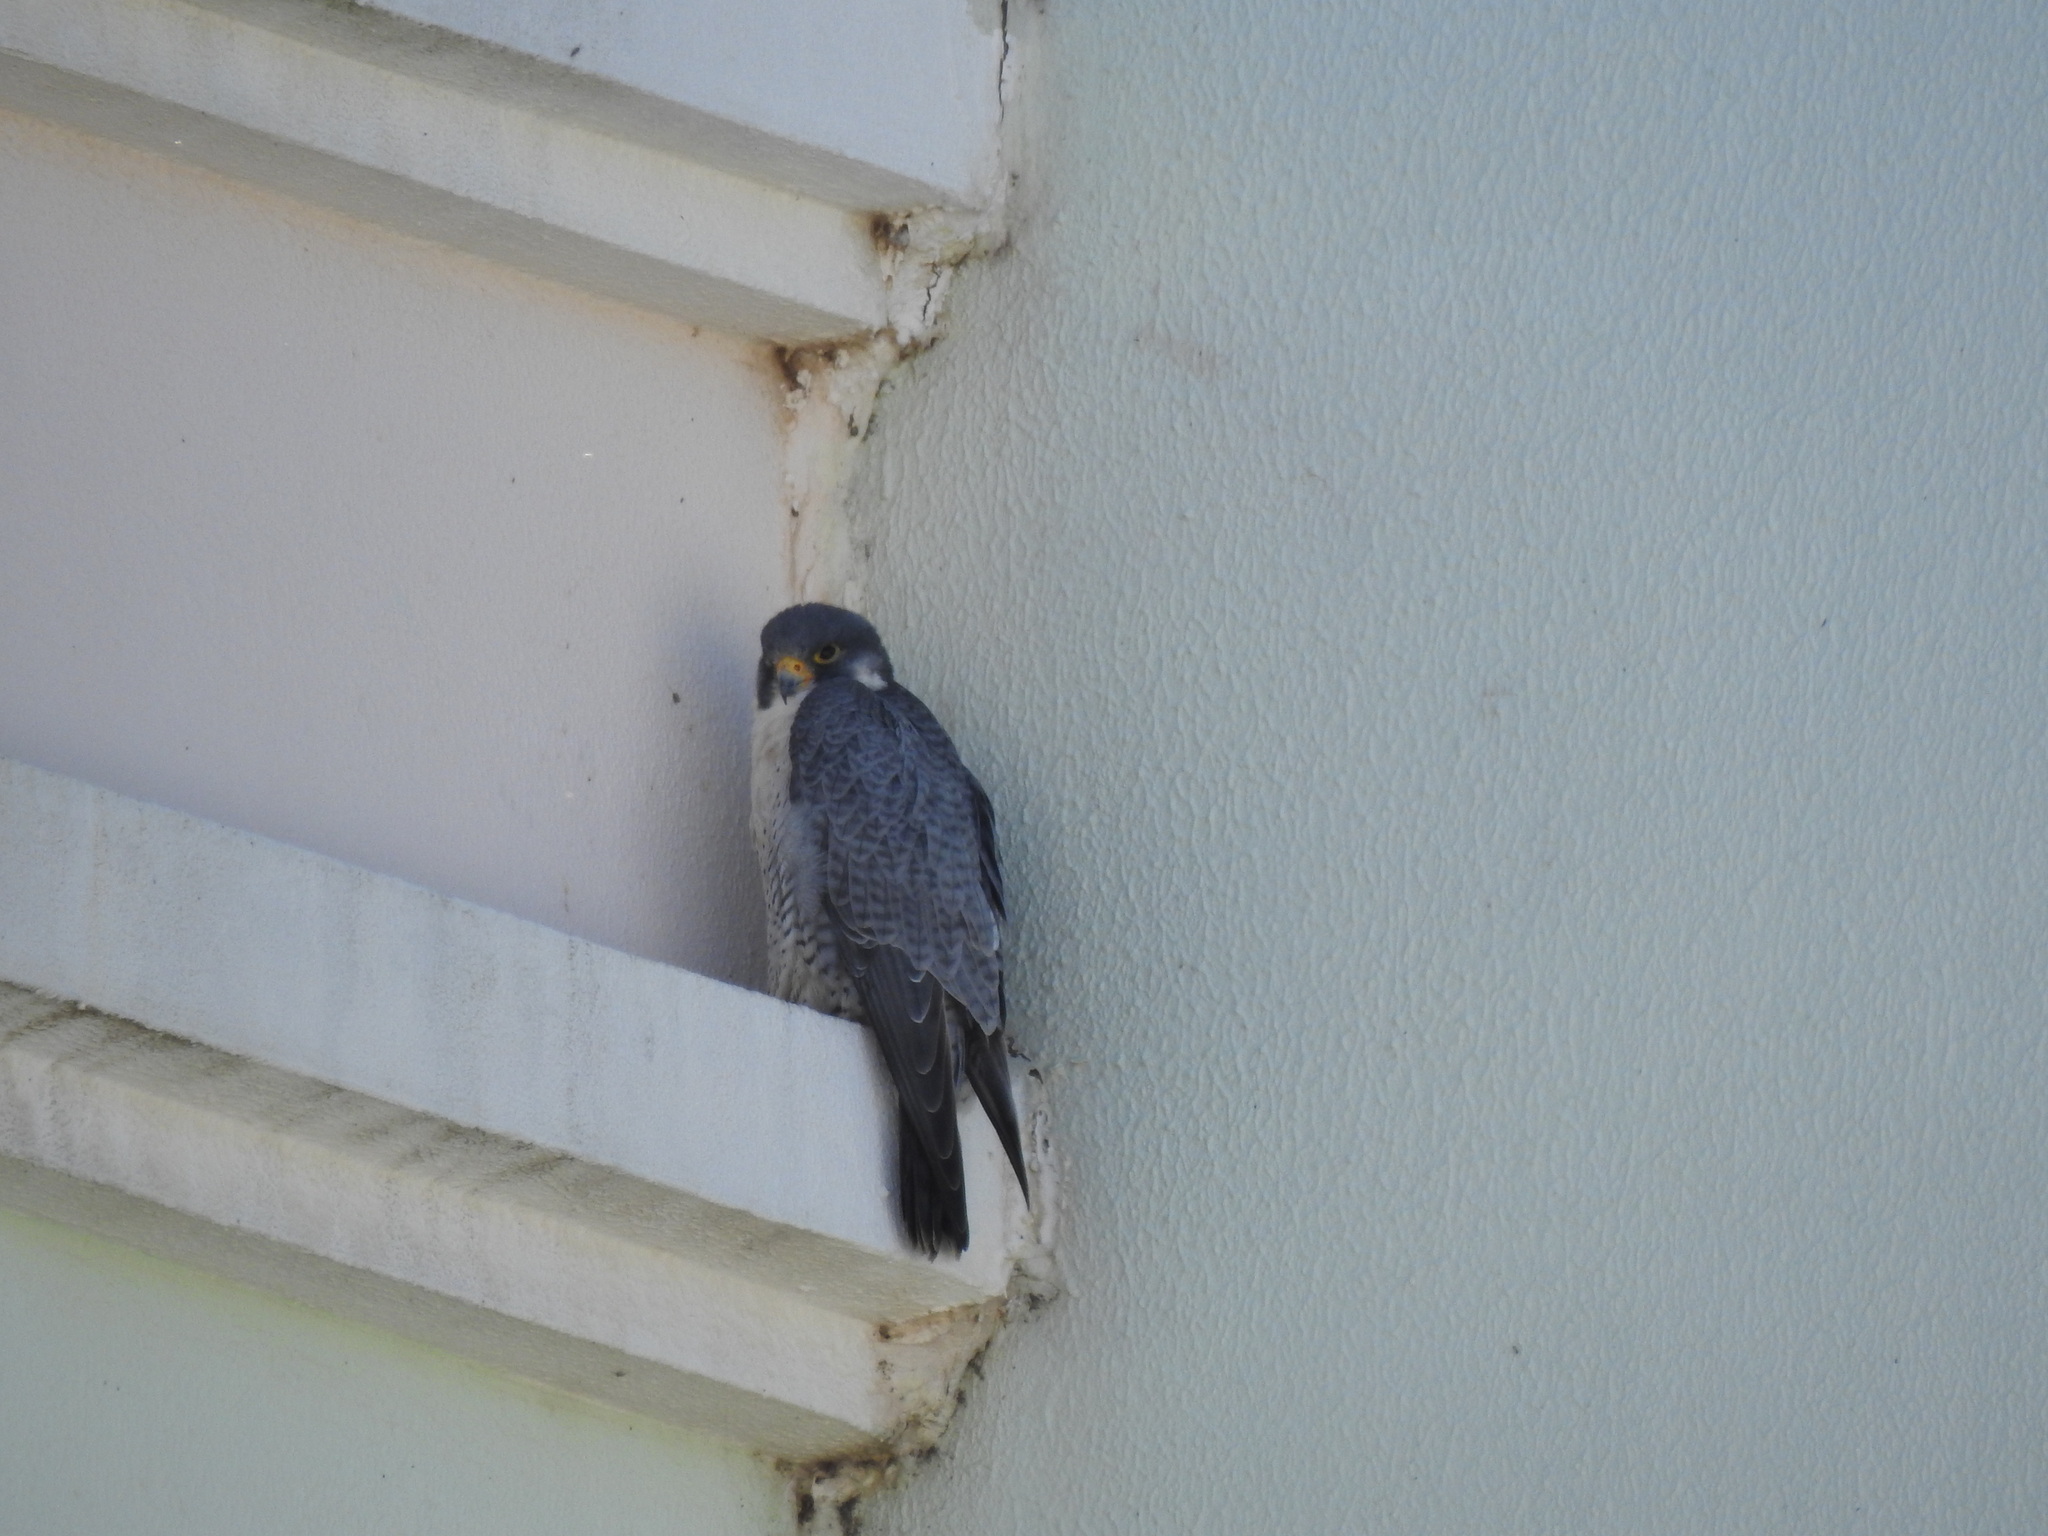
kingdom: Animalia
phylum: Chordata
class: Aves
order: Falconiformes
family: Falconidae
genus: Falco
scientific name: Falco peregrinus
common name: Peregrine falcon
